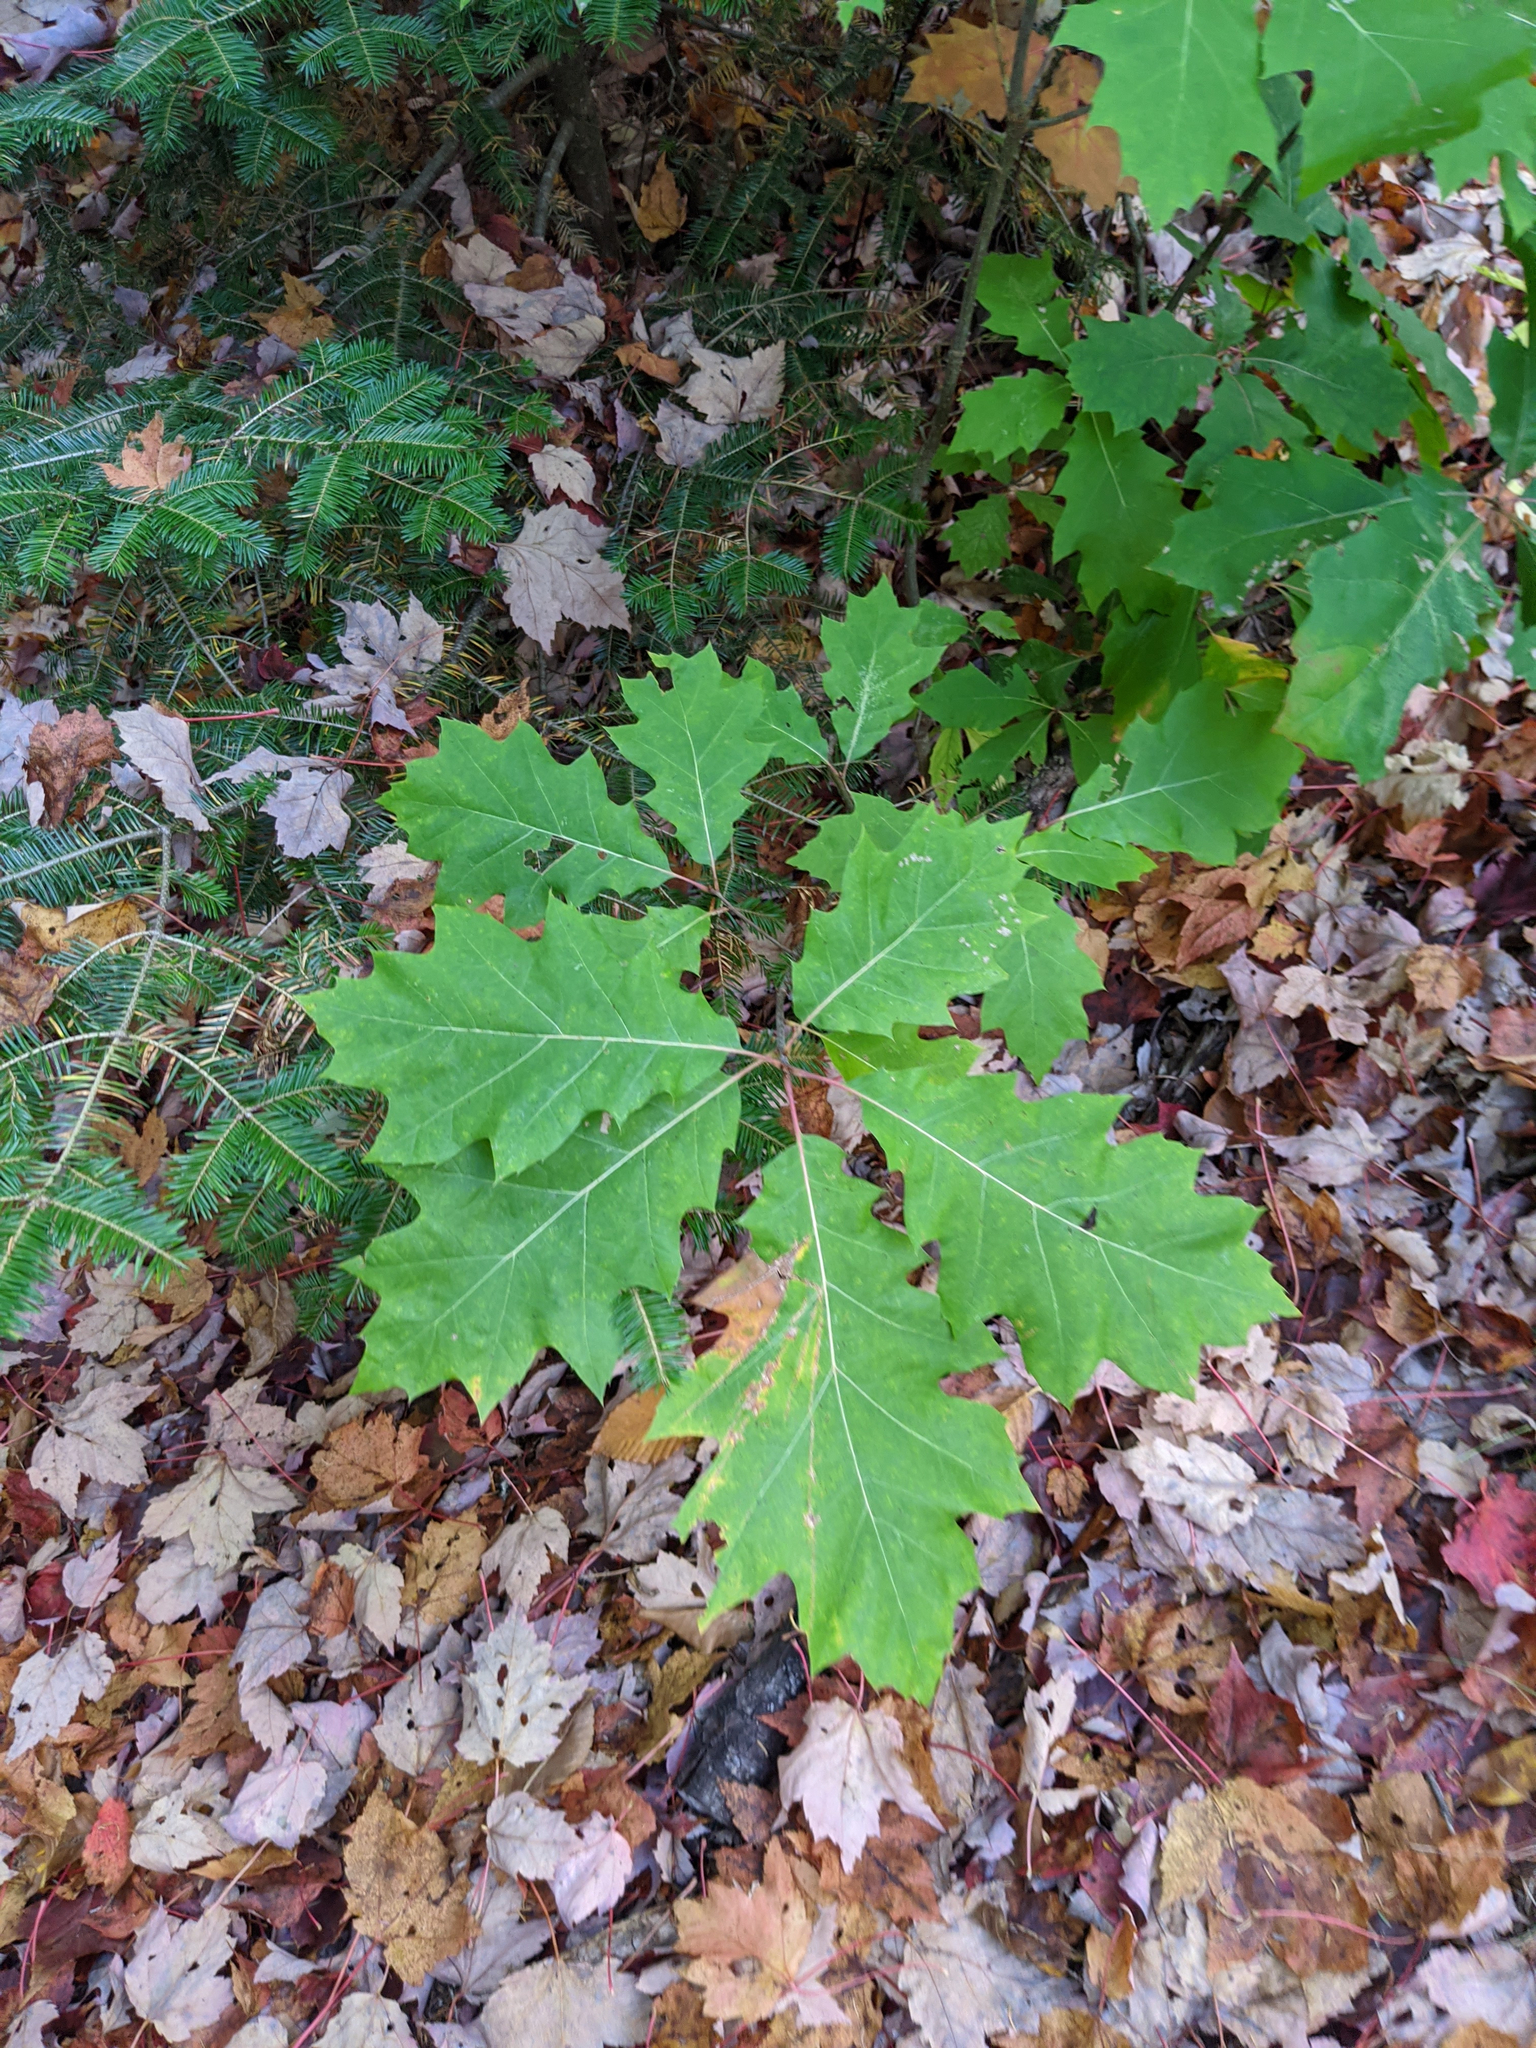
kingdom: Plantae
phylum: Tracheophyta
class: Magnoliopsida
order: Fagales
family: Fagaceae
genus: Quercus
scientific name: Quercus rubra
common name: Red oak
